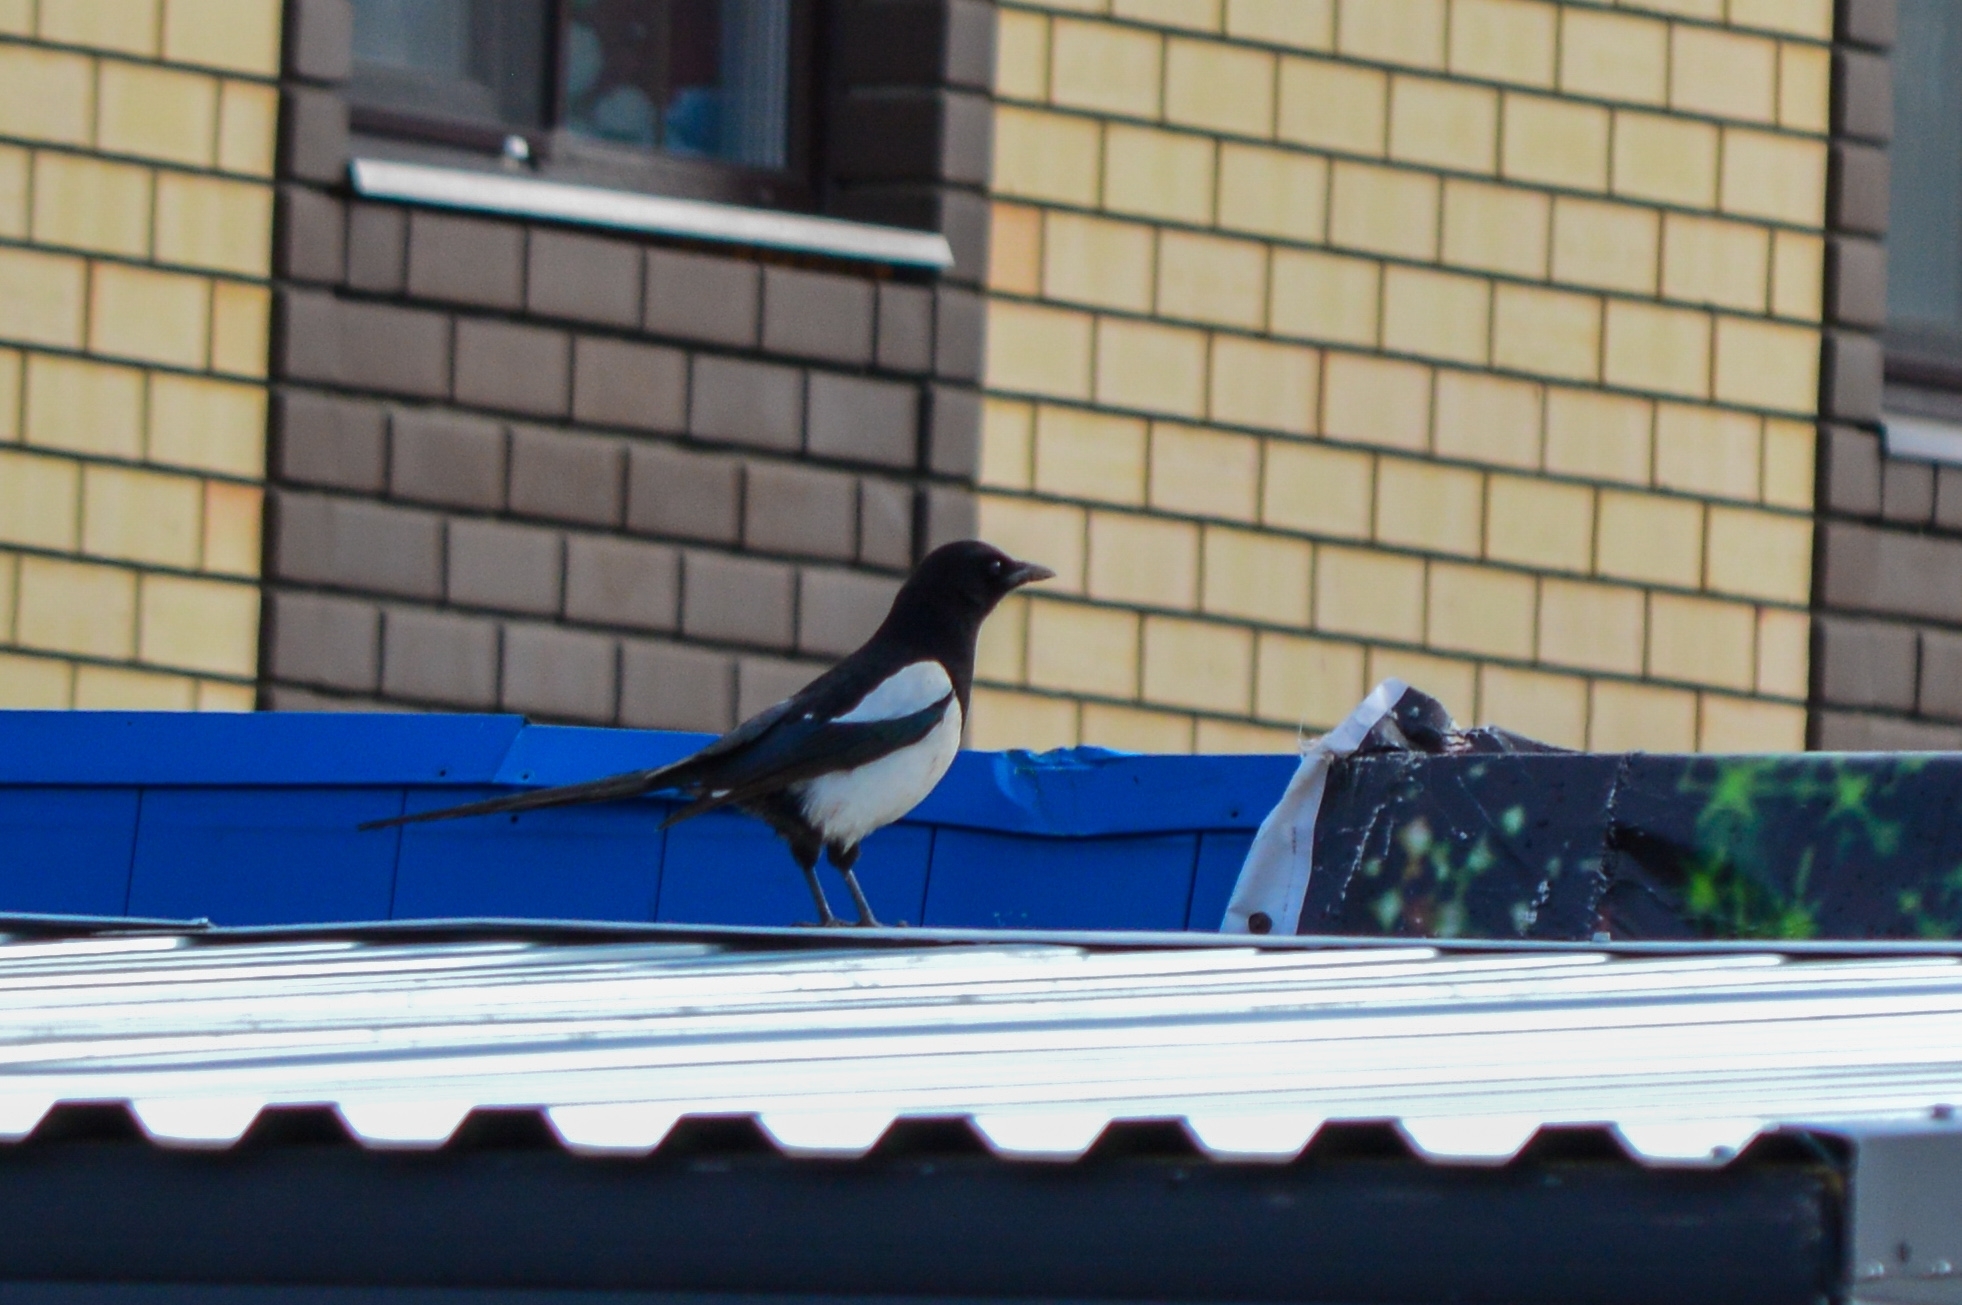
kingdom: Animalia
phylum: Chordata
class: Aves
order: Passeriformes
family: Corvidae
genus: Pica
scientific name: Pica pica
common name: Eurasian magpie
